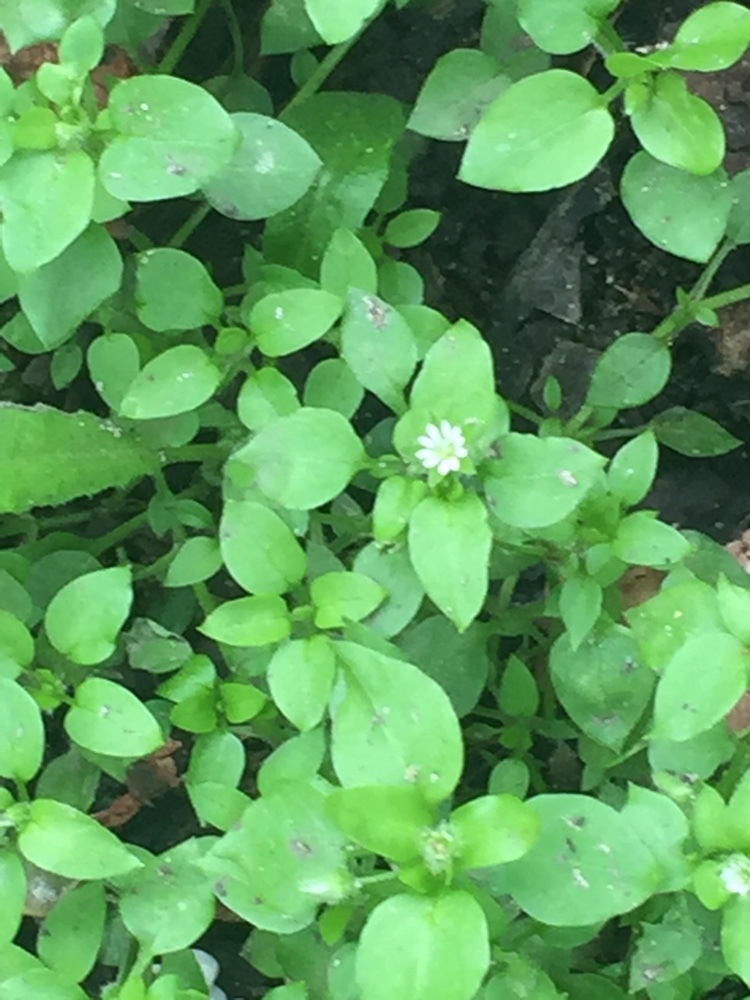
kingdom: Plantae
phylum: Tracheophyta
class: Magnoliopsida
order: Caryophyllales
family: Caryophyllaceae
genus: Stellaria
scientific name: Stellaria media
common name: Common chickweed
